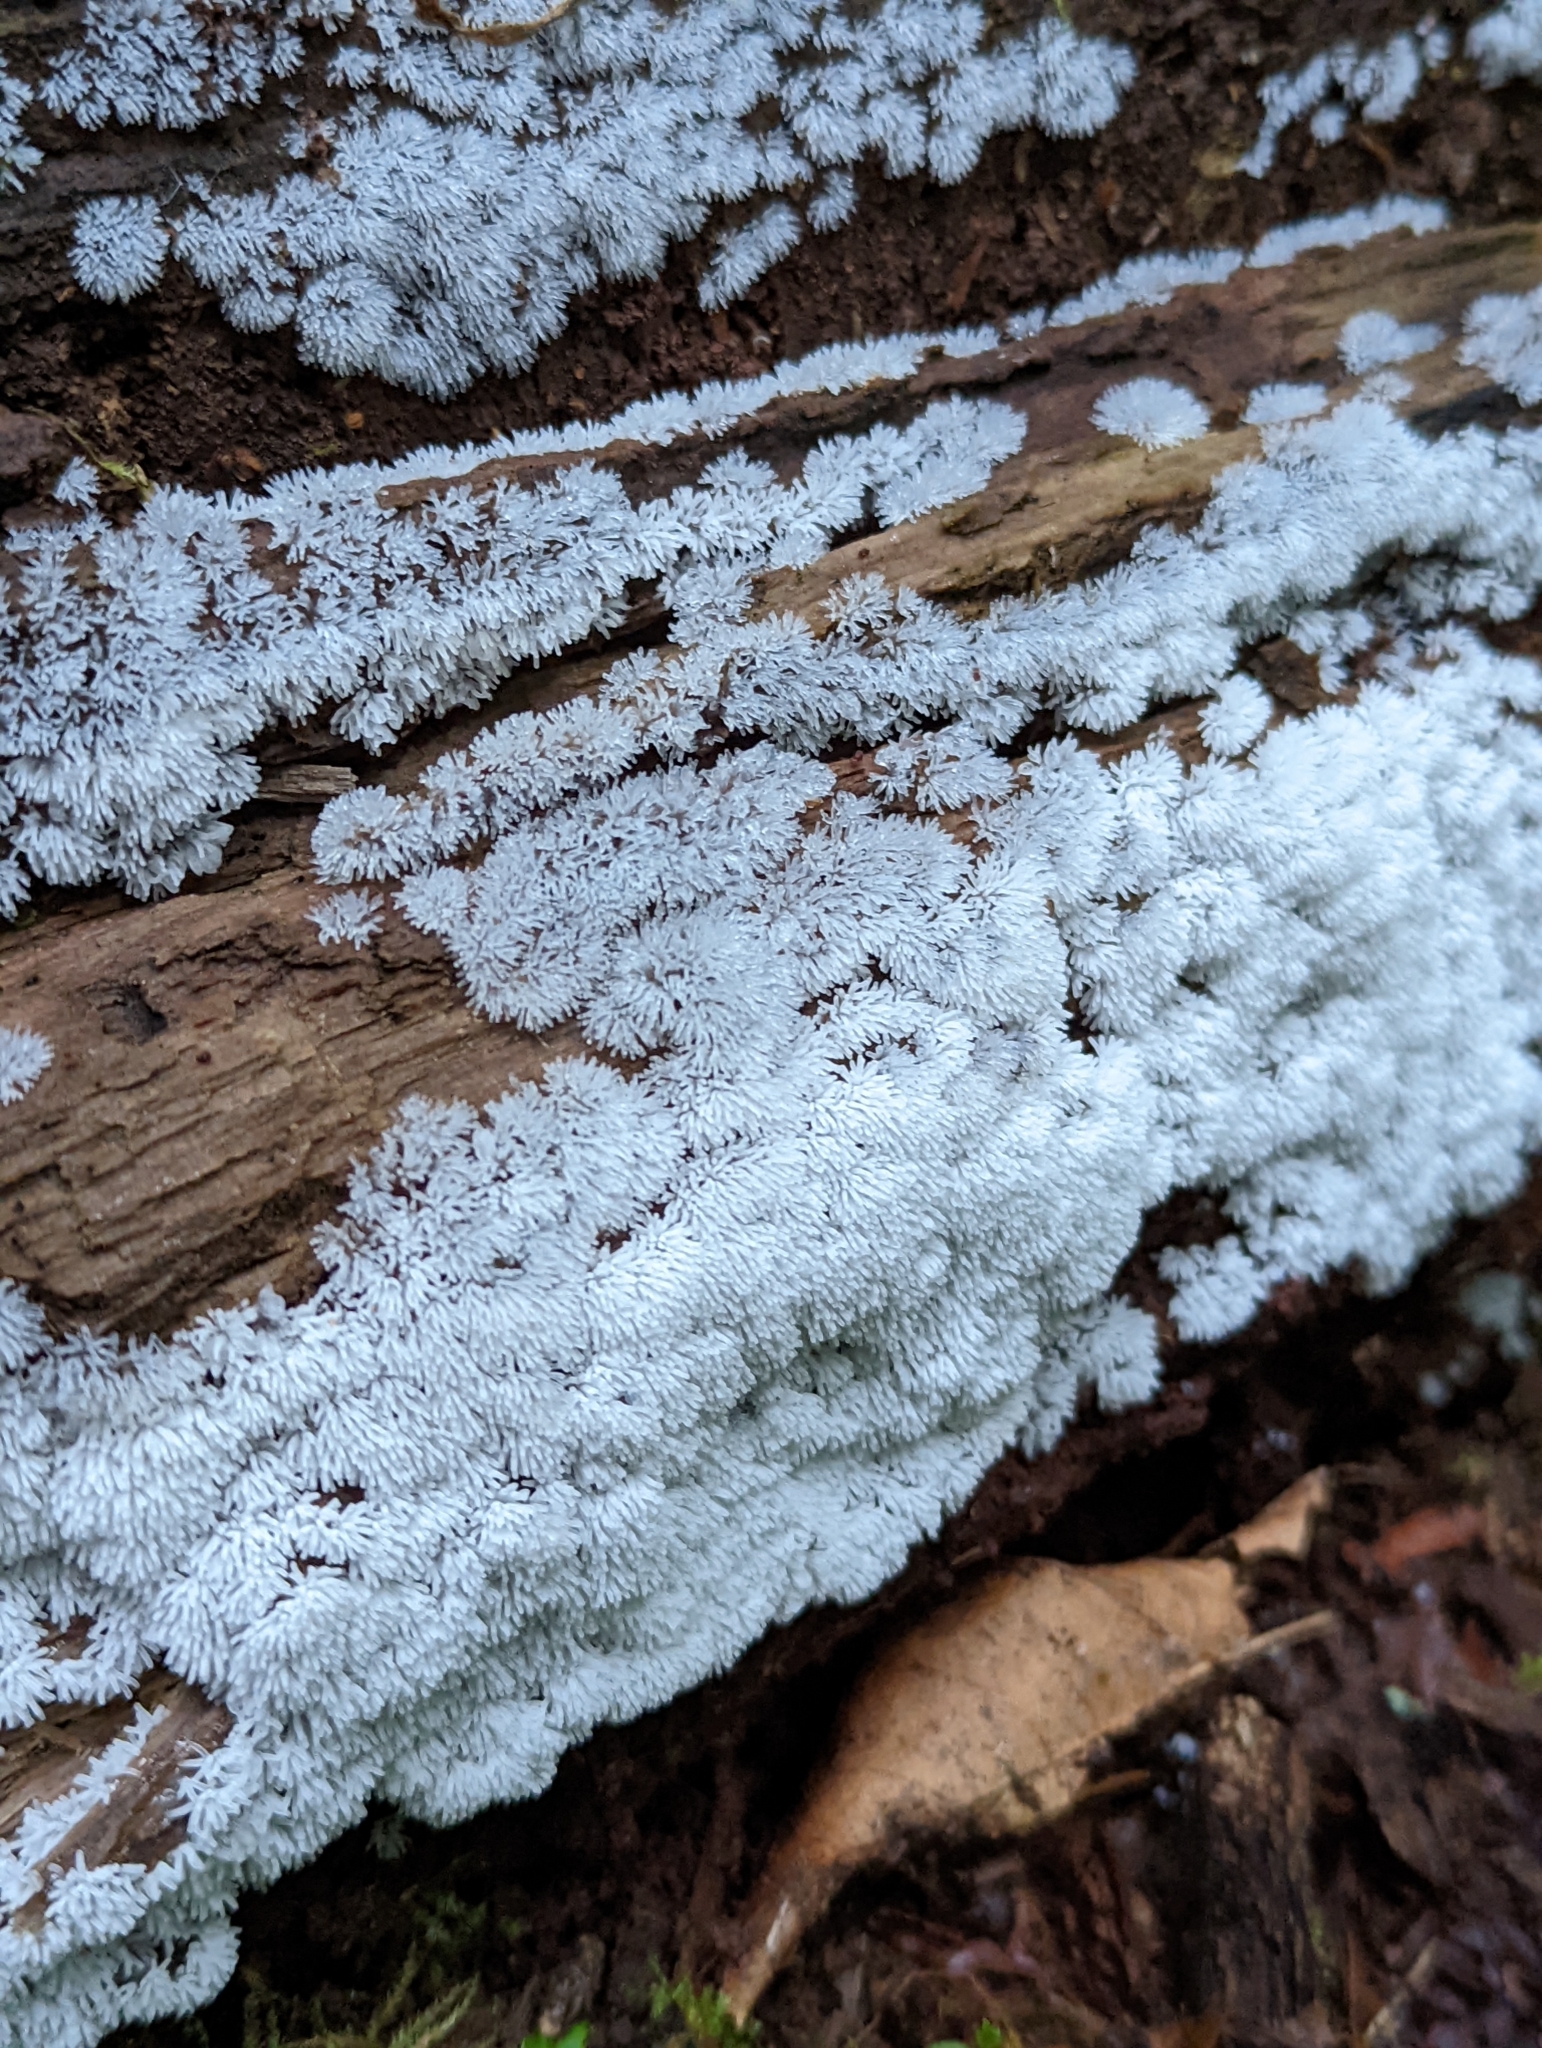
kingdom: Protozoa
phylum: Mycetozoa
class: Protosteliomycetes
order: Ceratiomyxales
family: Ceratiomyxaceae
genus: Ceratiomyxa
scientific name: Ceratiomyxa fruticulosa
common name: Honeycomb coral slime mold
